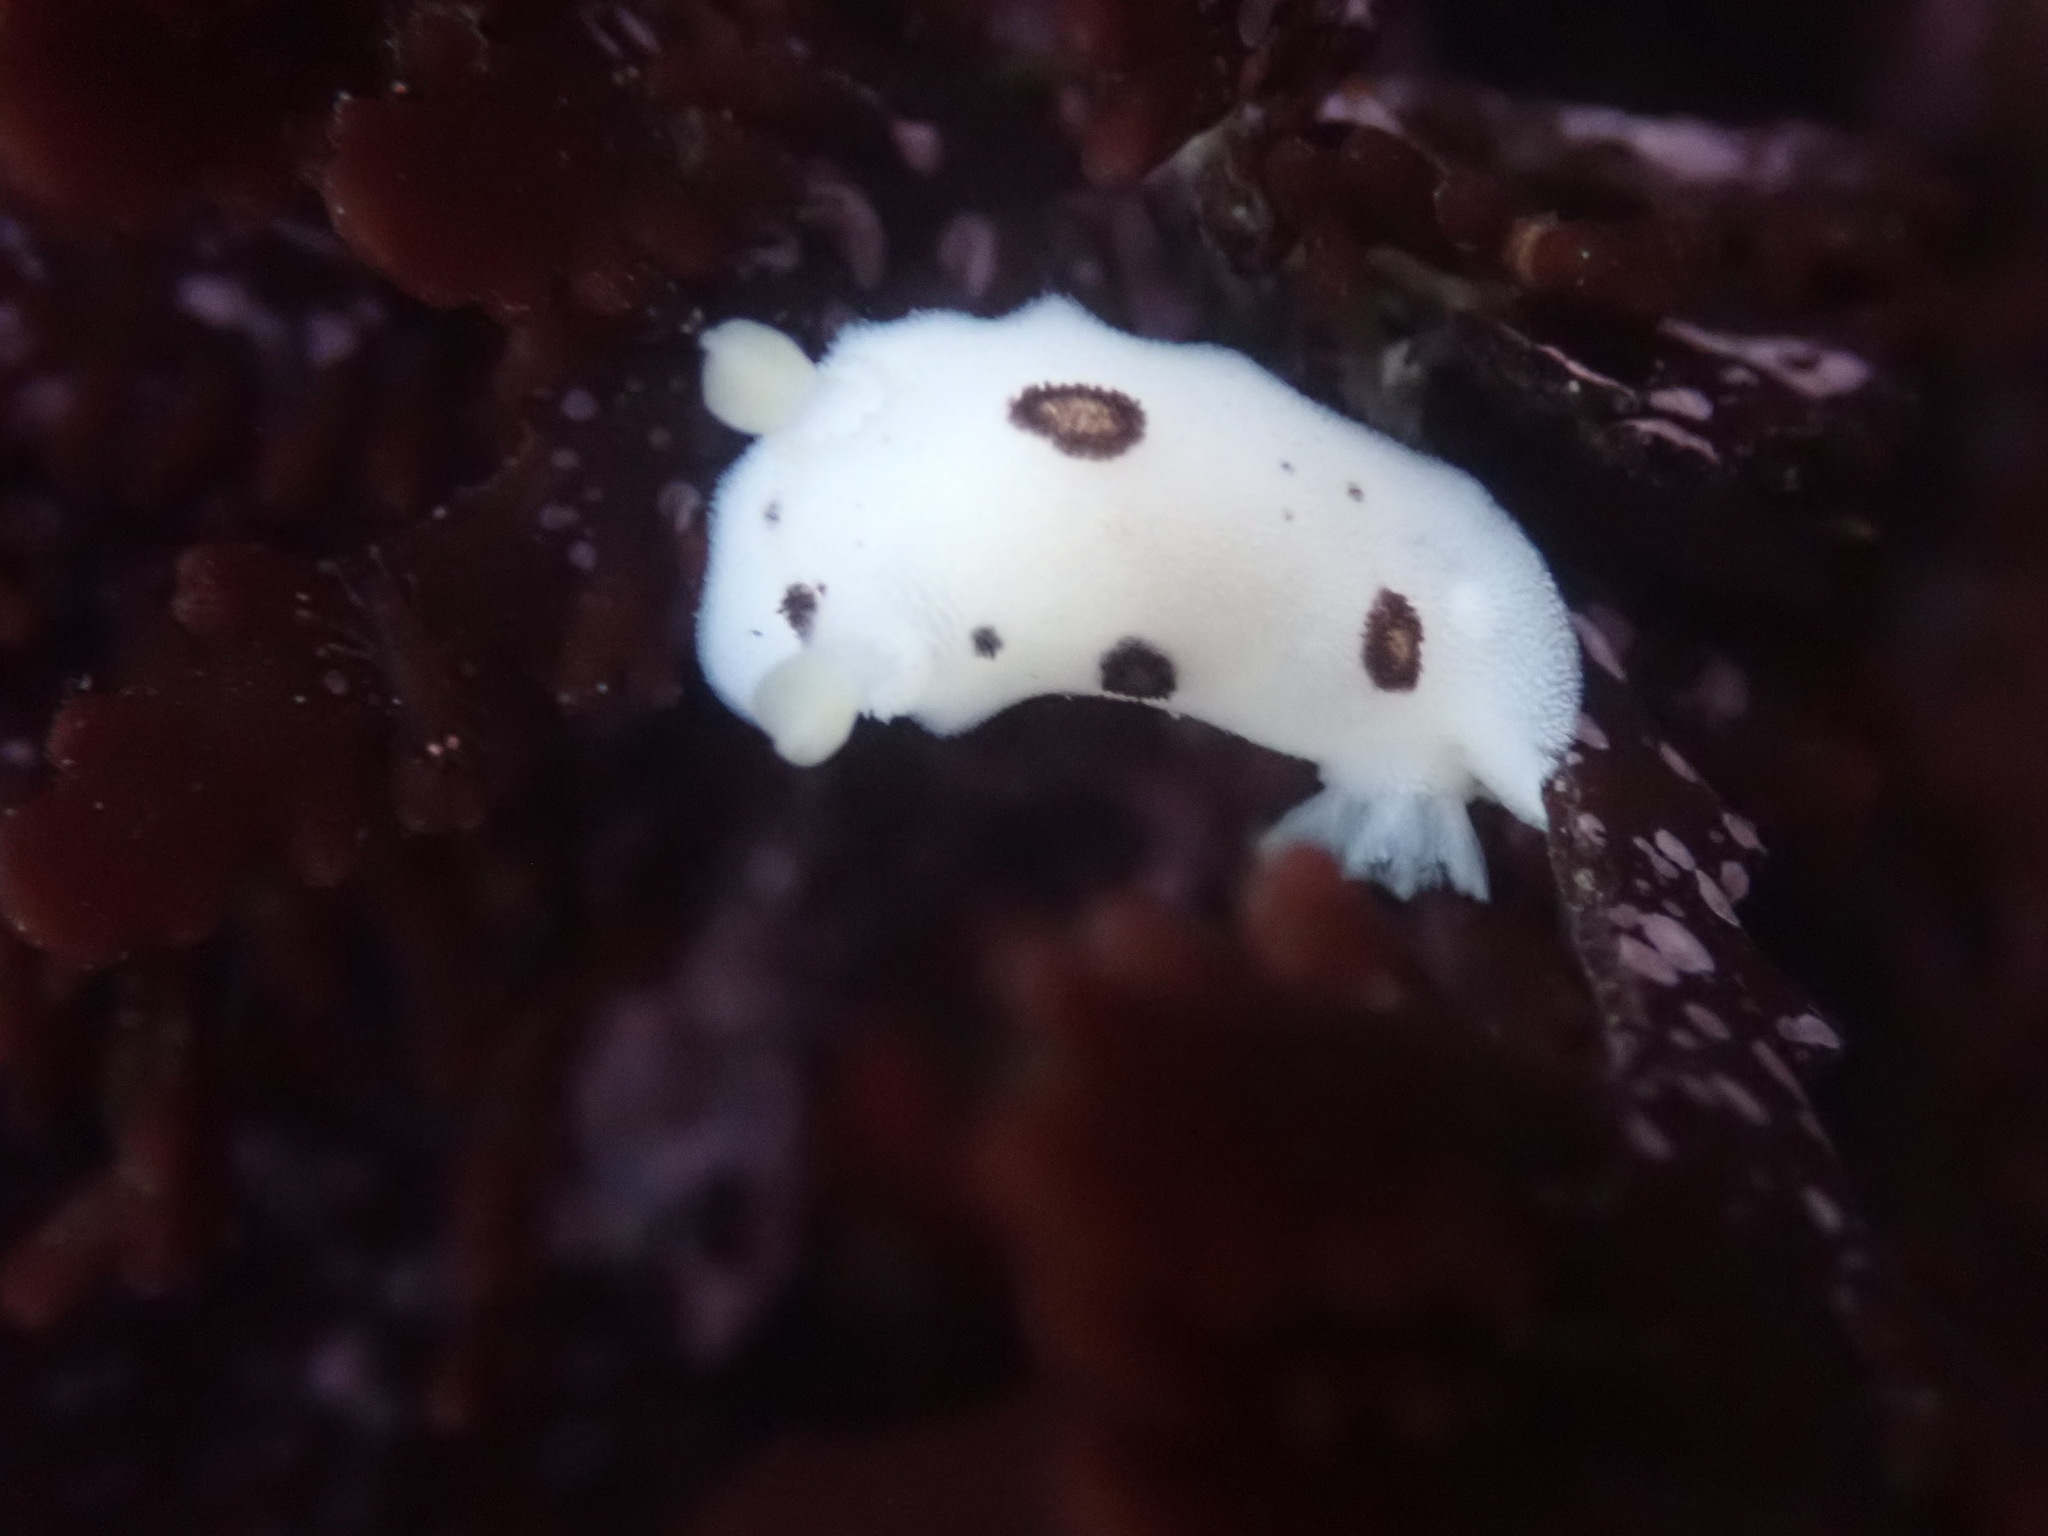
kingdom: Animalia
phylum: Mollusca
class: Gastropoda
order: Nudibranchia
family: Discodorididae
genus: Diaulula
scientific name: Diaulula sandiegensis
